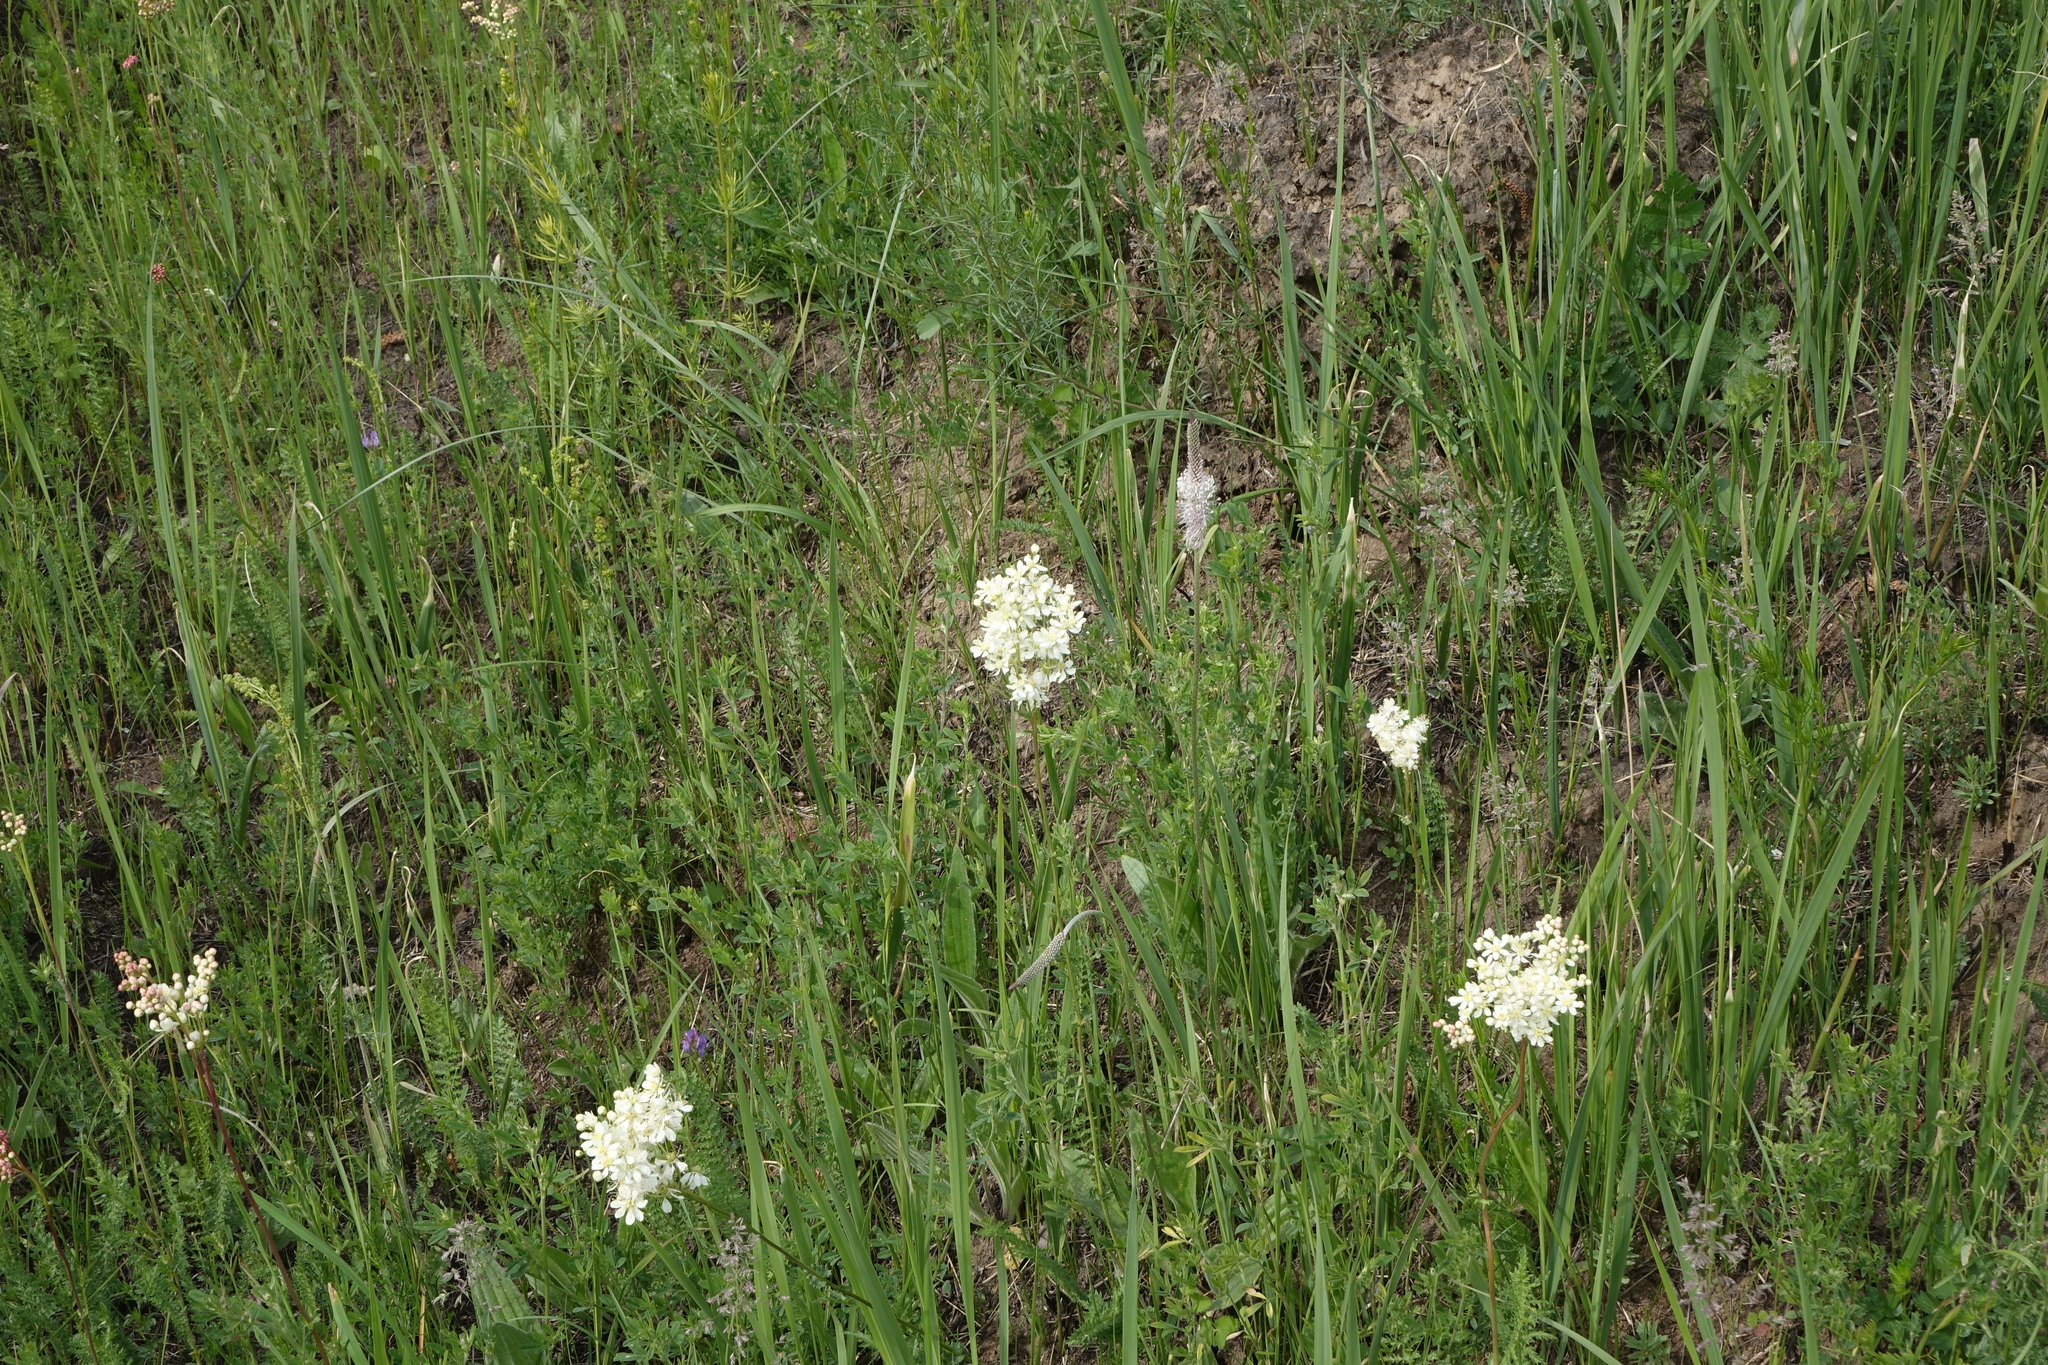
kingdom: Plantae
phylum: Tracheophyta
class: Magnoliopsida
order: Rosales
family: Rosaceae
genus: Filipendula
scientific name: Filipendula vulgaris
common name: Dropwort
